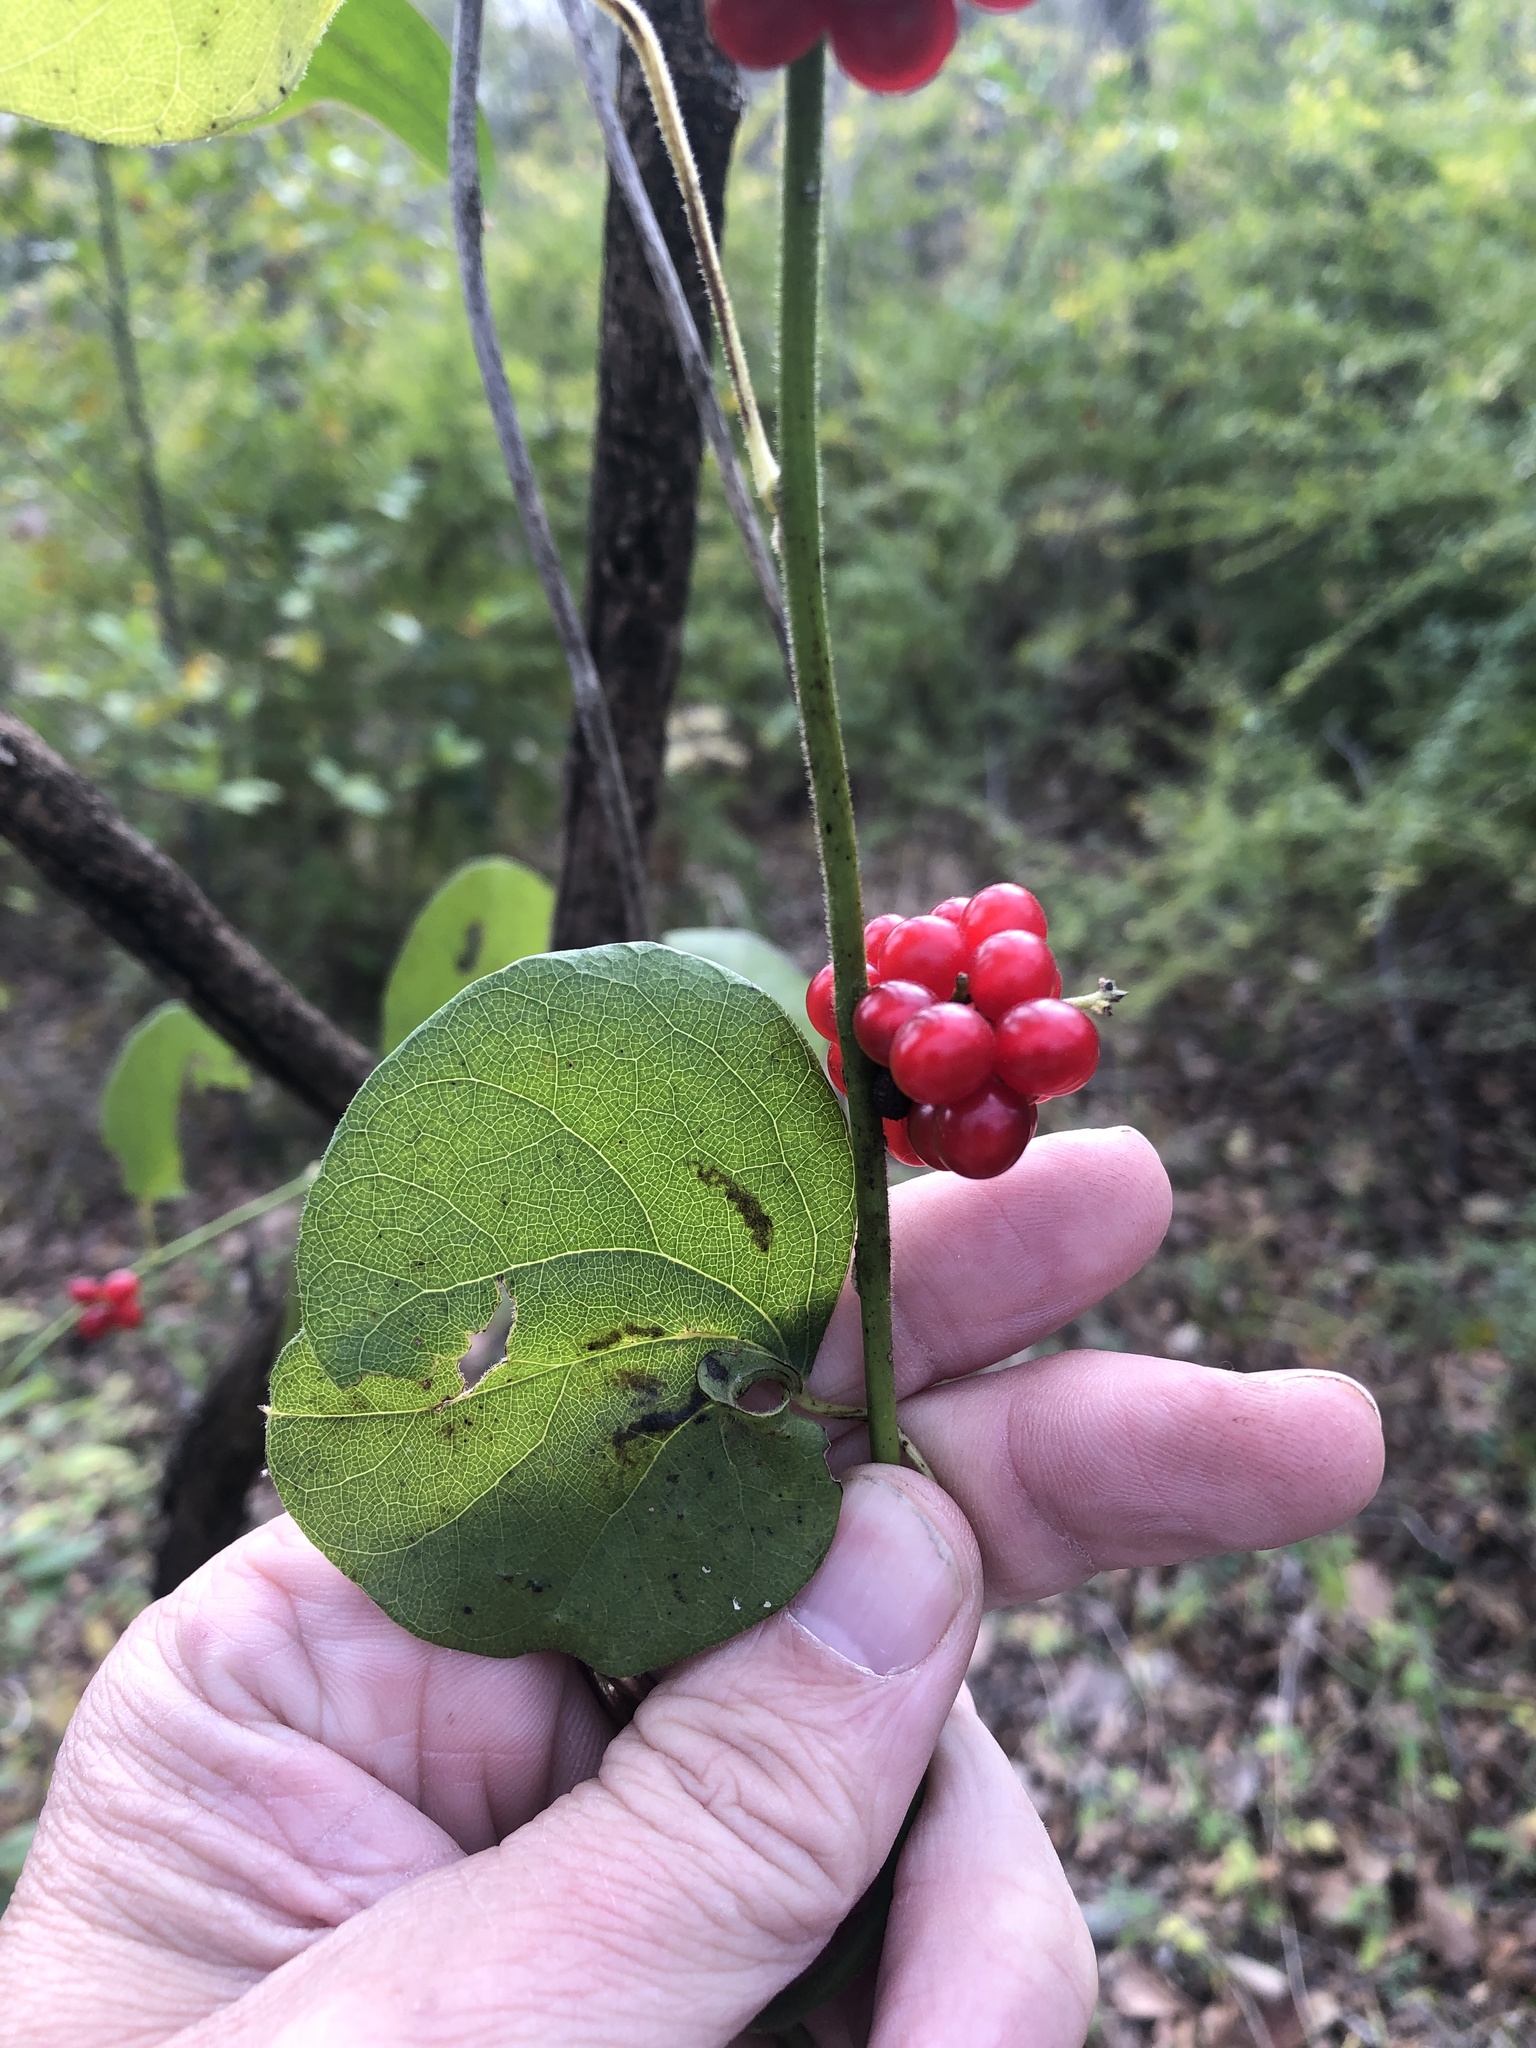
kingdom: Plantae
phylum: Tracheophyta
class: Magnoliopsida
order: Ranunculales
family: Menispermaceae
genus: Cocculus
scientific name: Cocculus carolinus
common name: Carolina moonseed
